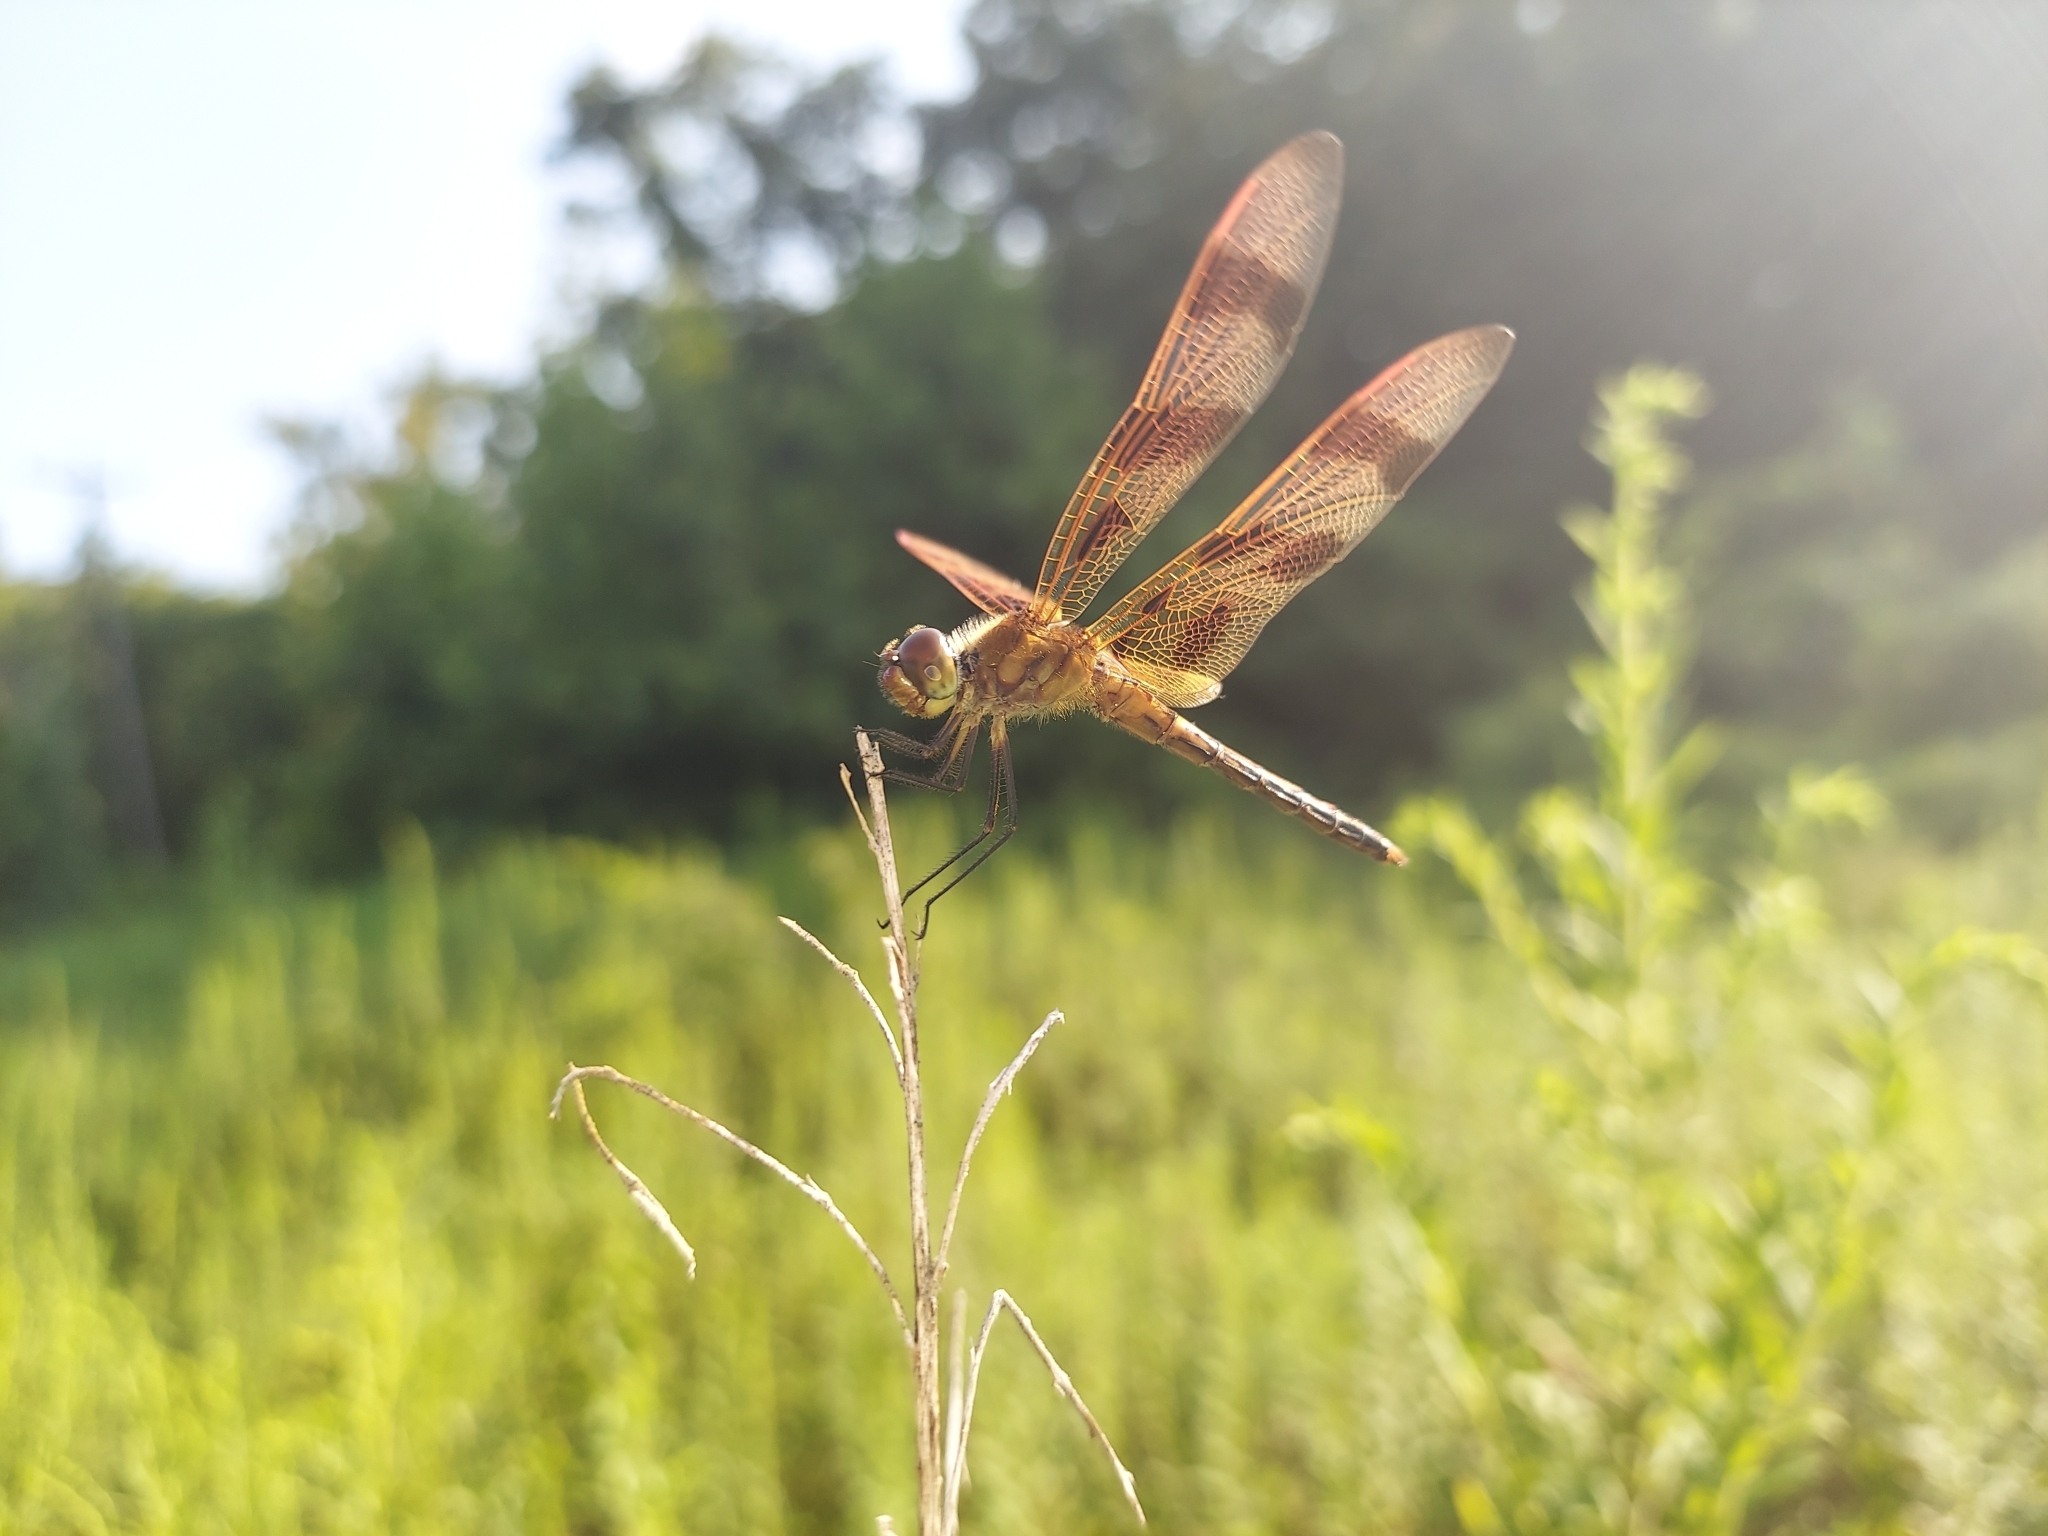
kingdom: Animalia
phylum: Arthropoda
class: Insecta
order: Odonata
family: Libellulidae
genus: Celithemis
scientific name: Celithemis eponina
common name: Halloween pennant
